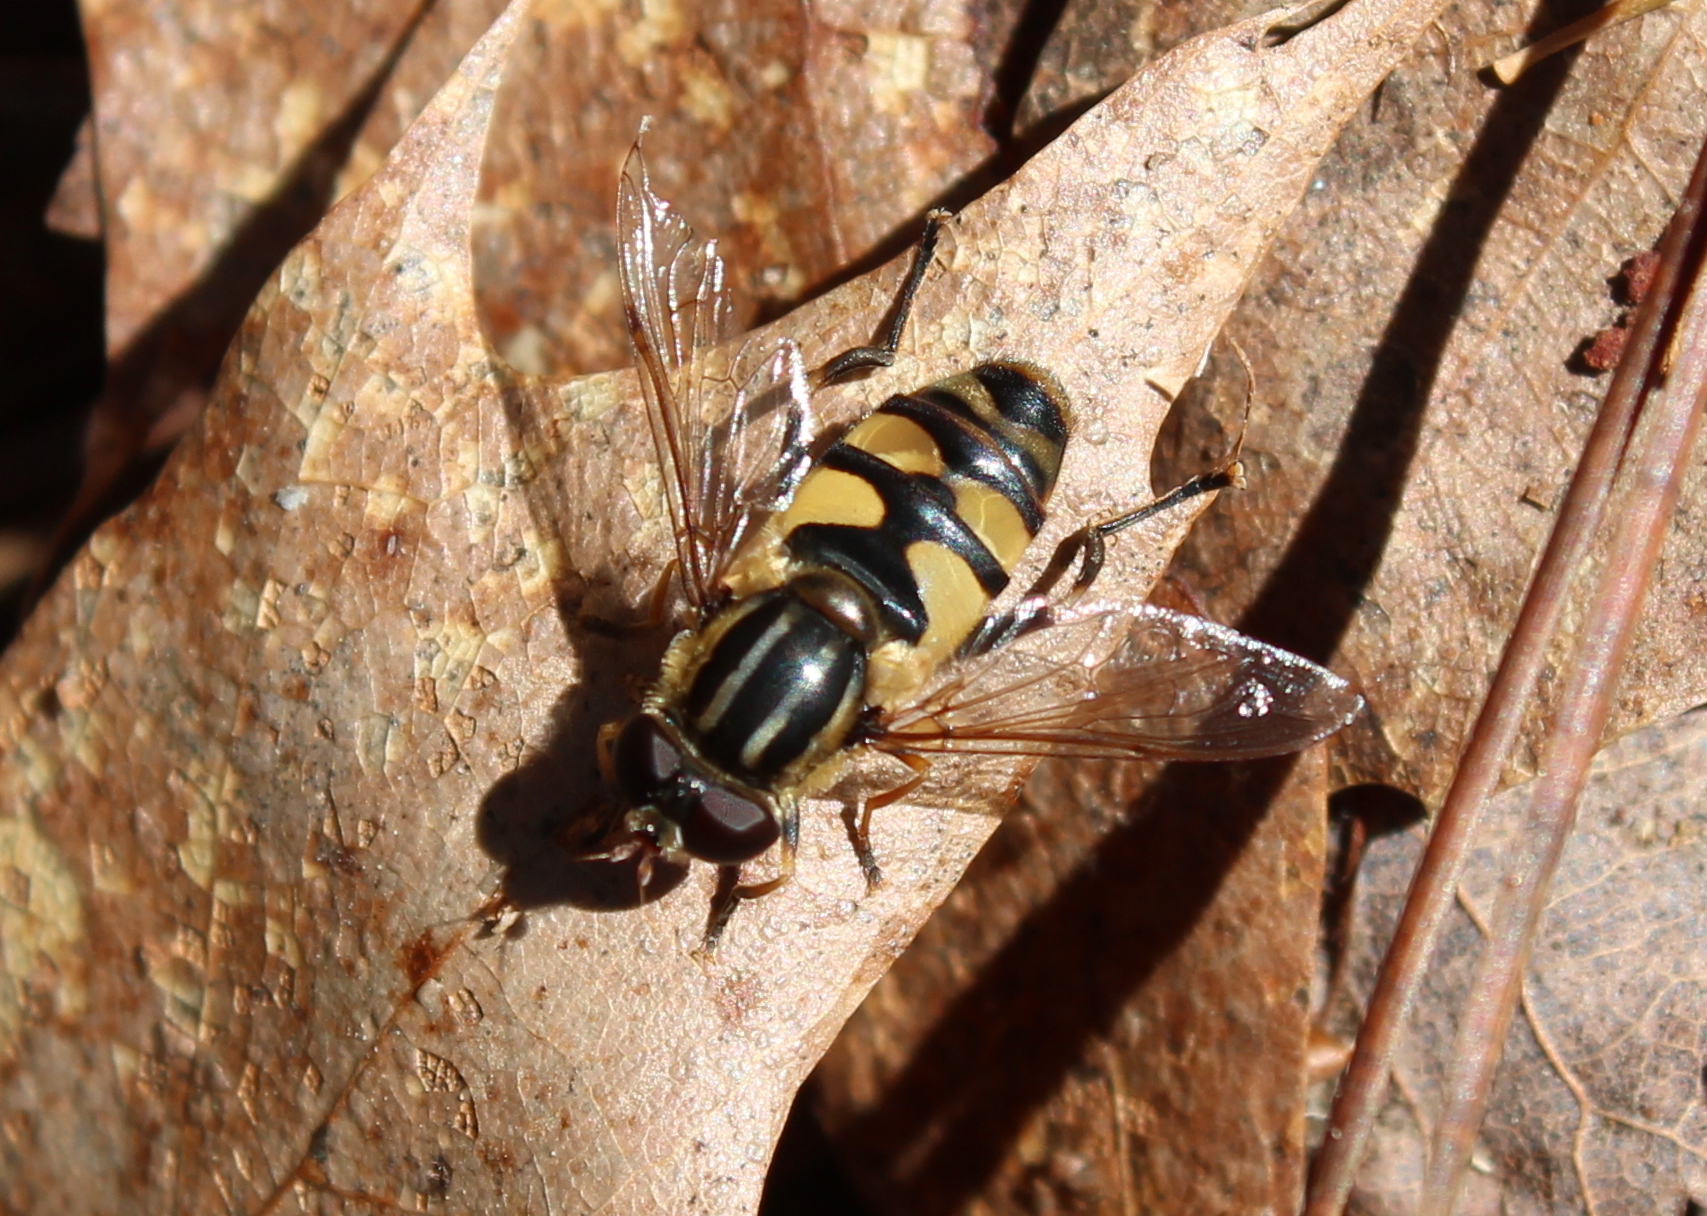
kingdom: Animalia
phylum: Arthropoda
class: Insecta
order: Diptera
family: Syrphidae
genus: Helophilus
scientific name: Helophilus fasciatus
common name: Narrow-headed marsh fly
